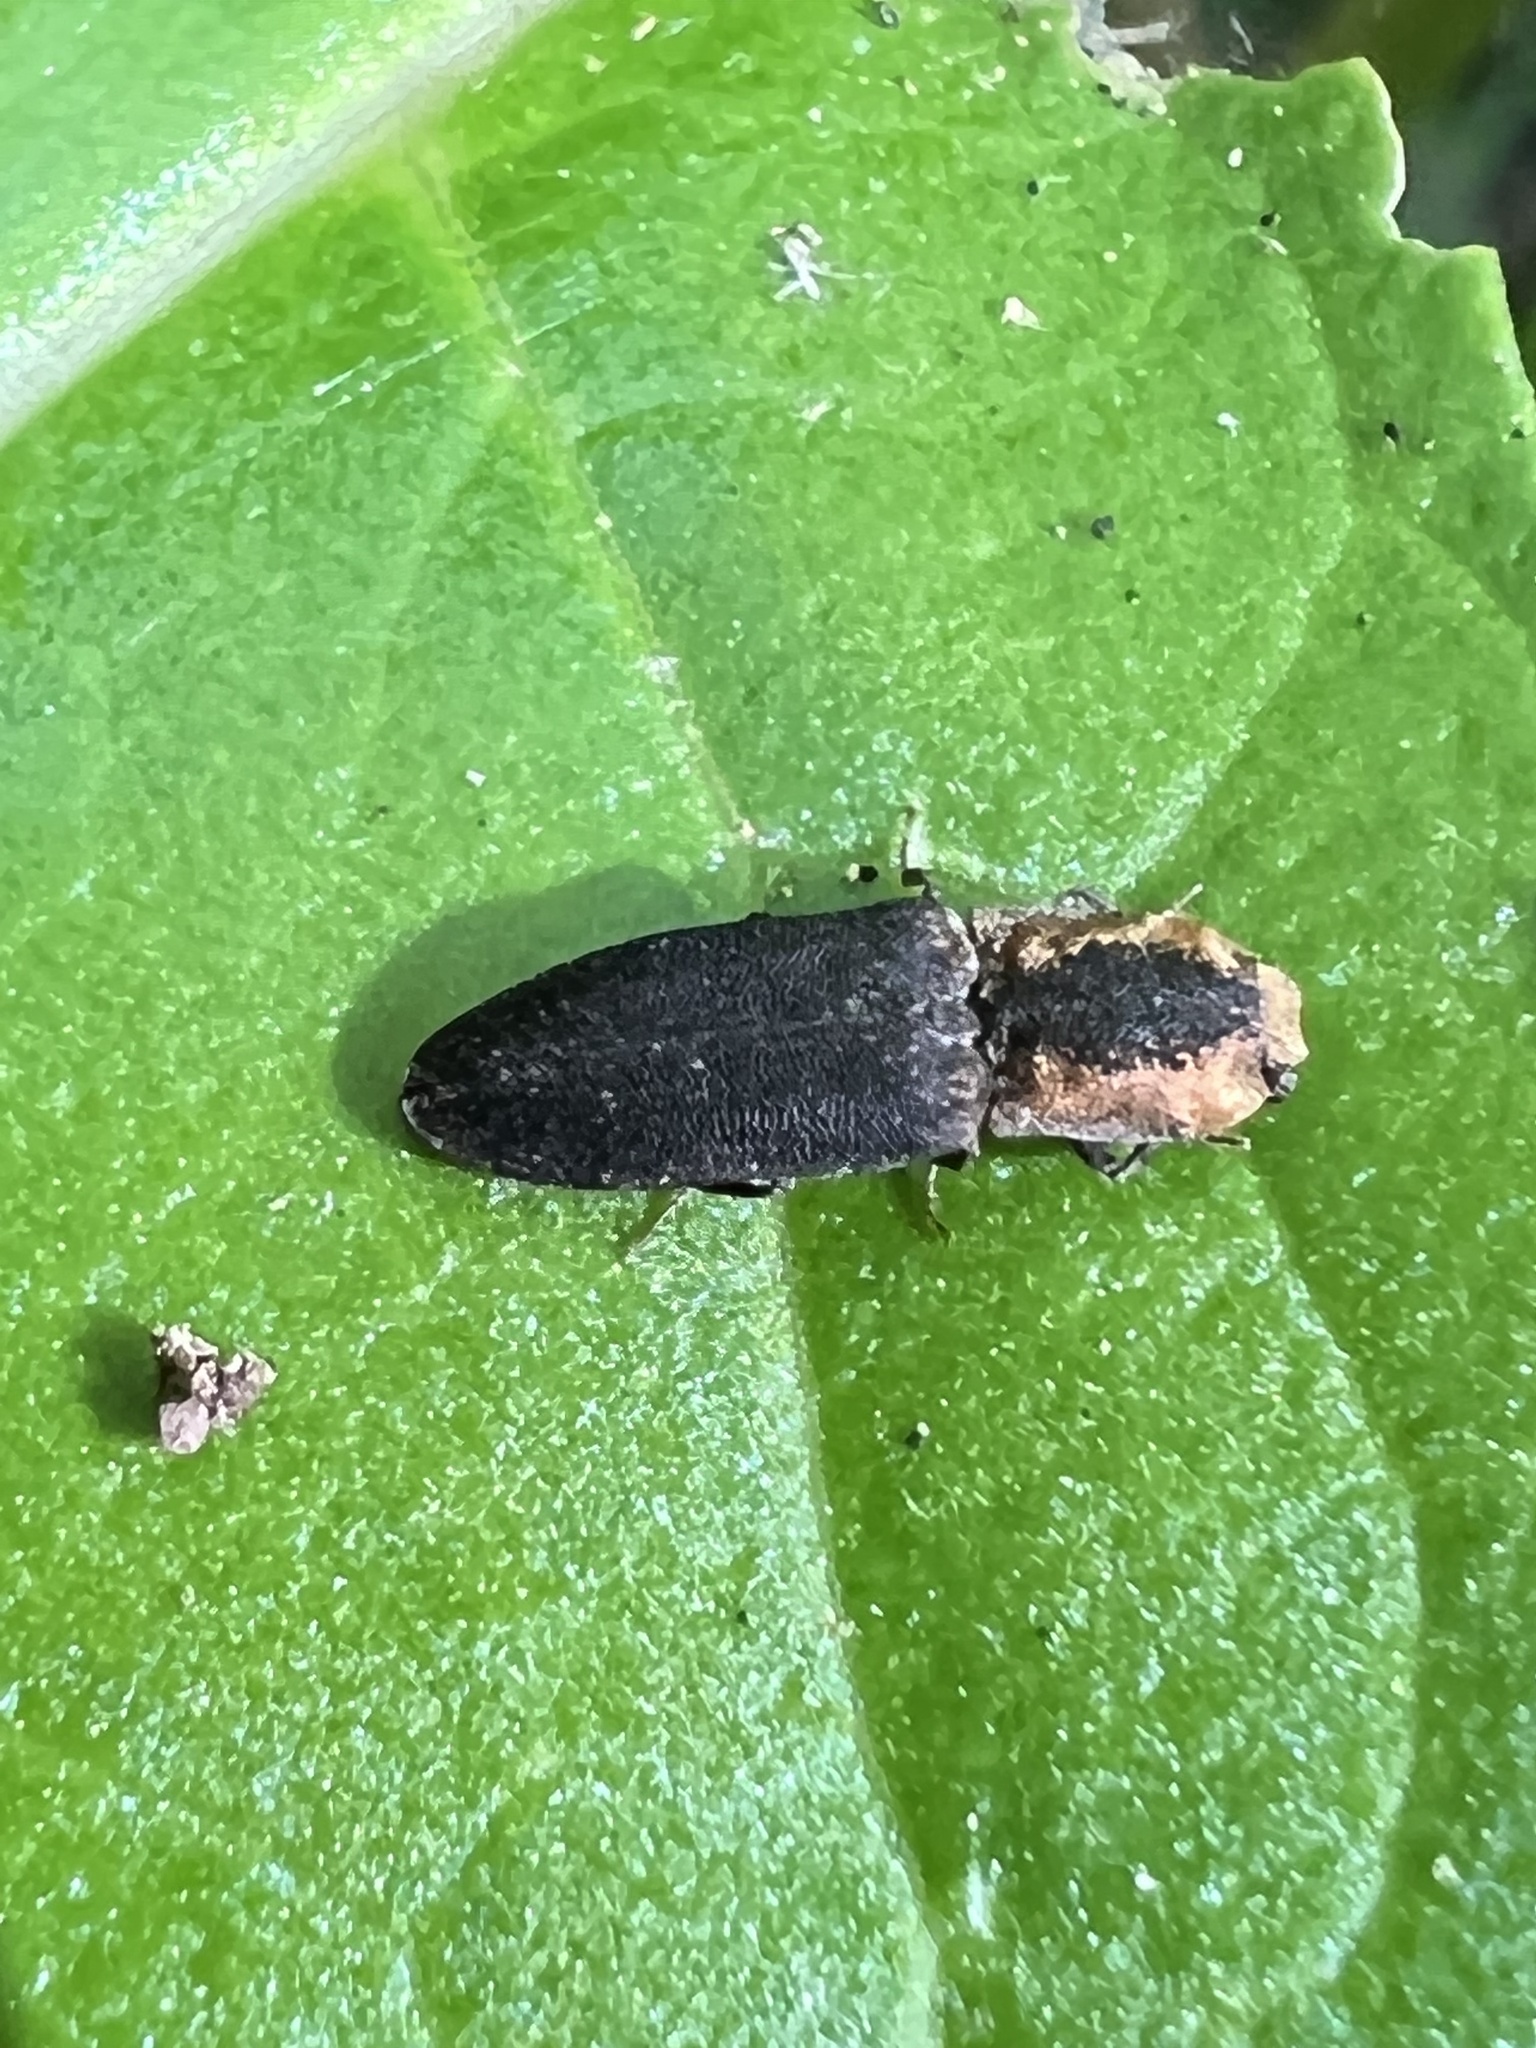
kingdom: Animalia
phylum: Arthropoda
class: Insecta
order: Coleoptera
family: Elateridae
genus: Lacon
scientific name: Lacon discoideus
